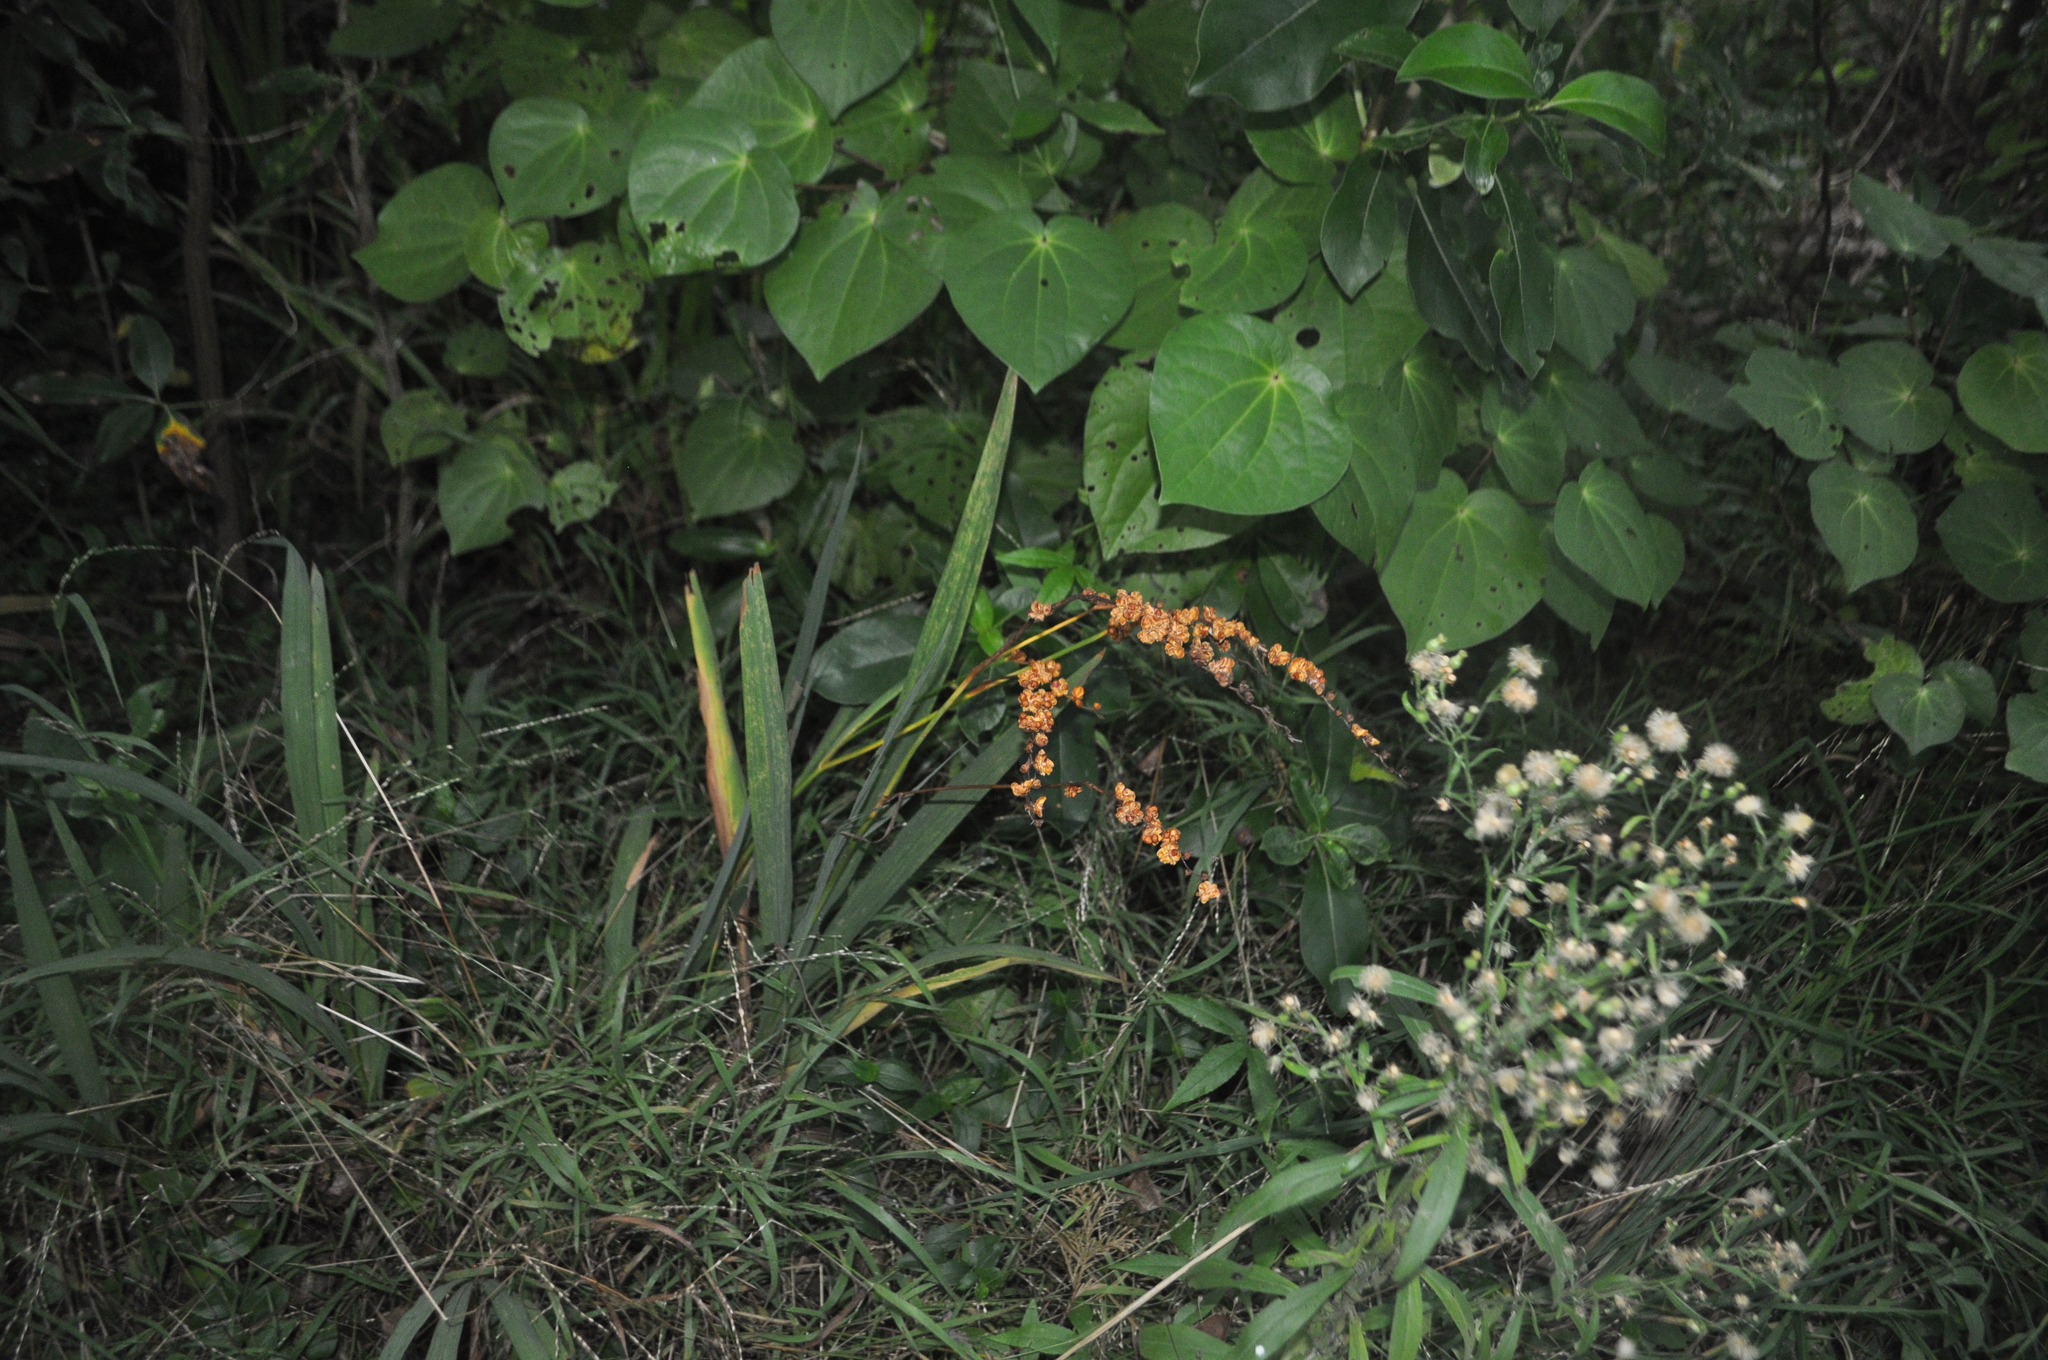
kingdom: Plantae
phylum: Tracheophyta
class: Liliopsida
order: Asparagales
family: Iridaceae
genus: Crocosmia
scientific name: Crocosmia crocosmiiflora
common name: Montbretia
